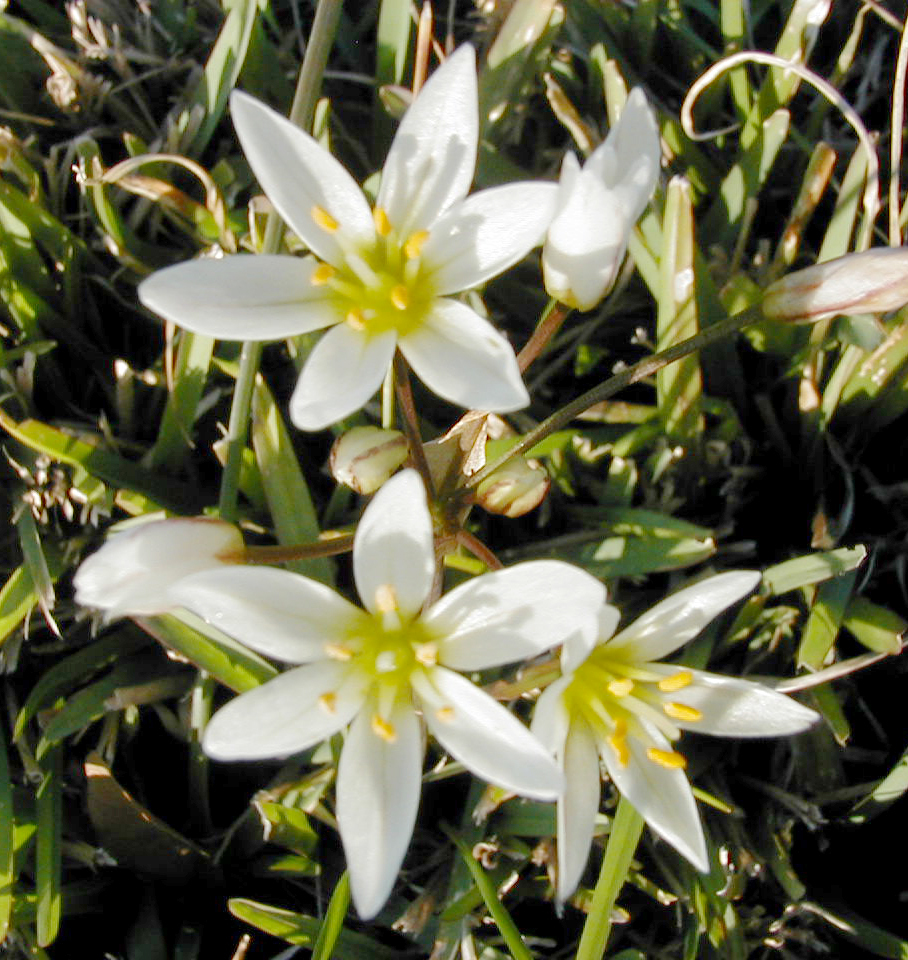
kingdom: Plantae
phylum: Tracheophyta
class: Liliopsida
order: Asparagales
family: Amaryllidaceae
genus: Nothoscordum
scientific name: Nothoscordum bivalve
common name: Crow-poison
